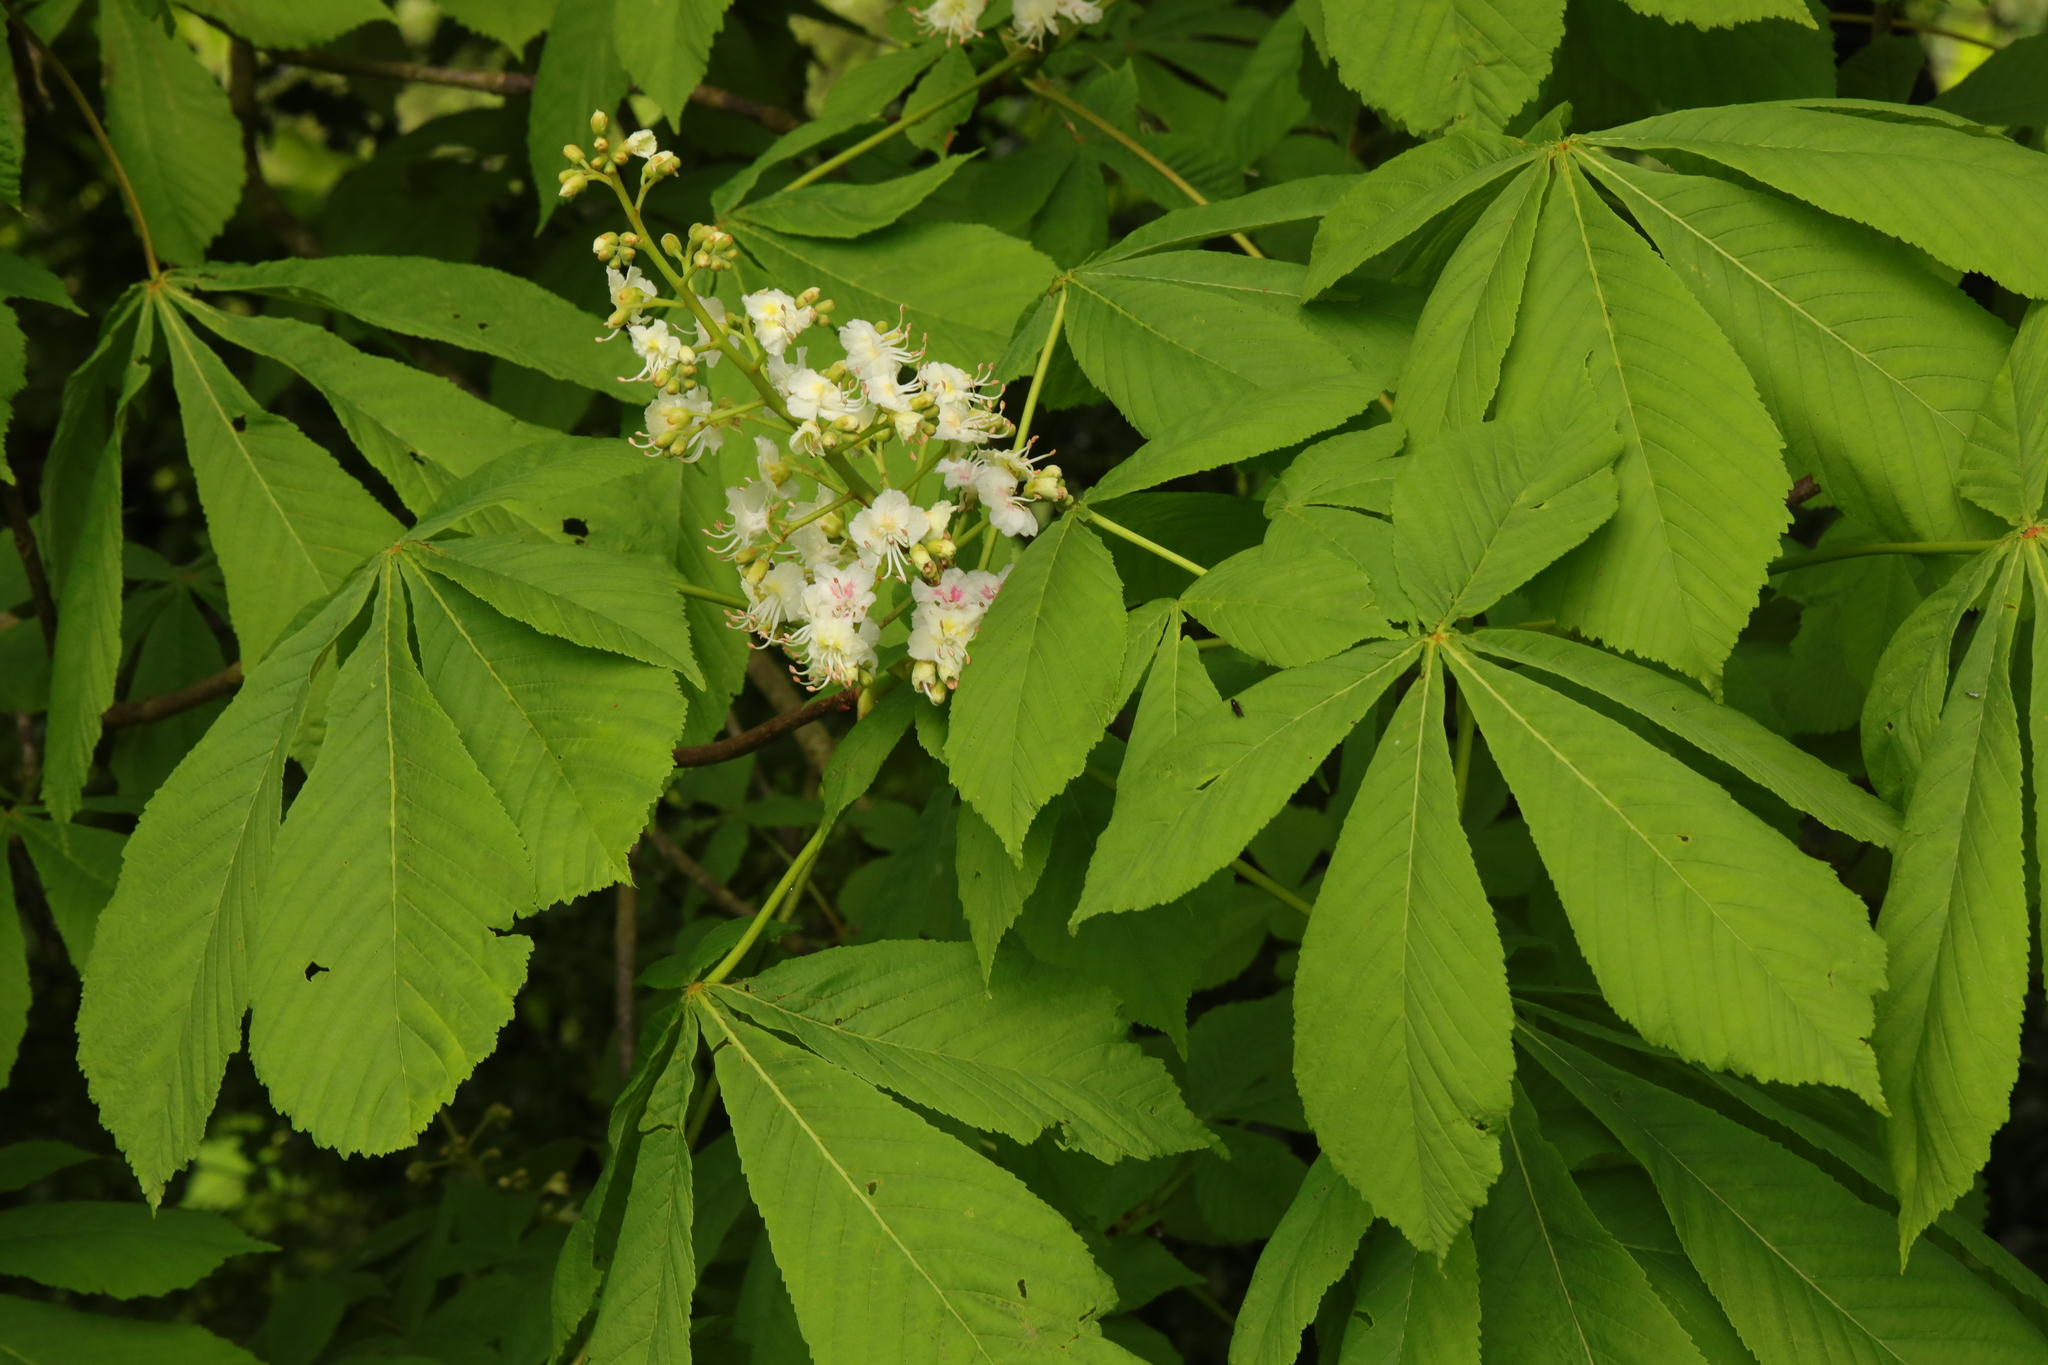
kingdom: Plantae
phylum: Tracheophyta
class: Magnoliopsida
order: Sapindales
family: Sapindaceae
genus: Aesculus
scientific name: Aesculus hippocastanum
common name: Horse-chestnut
